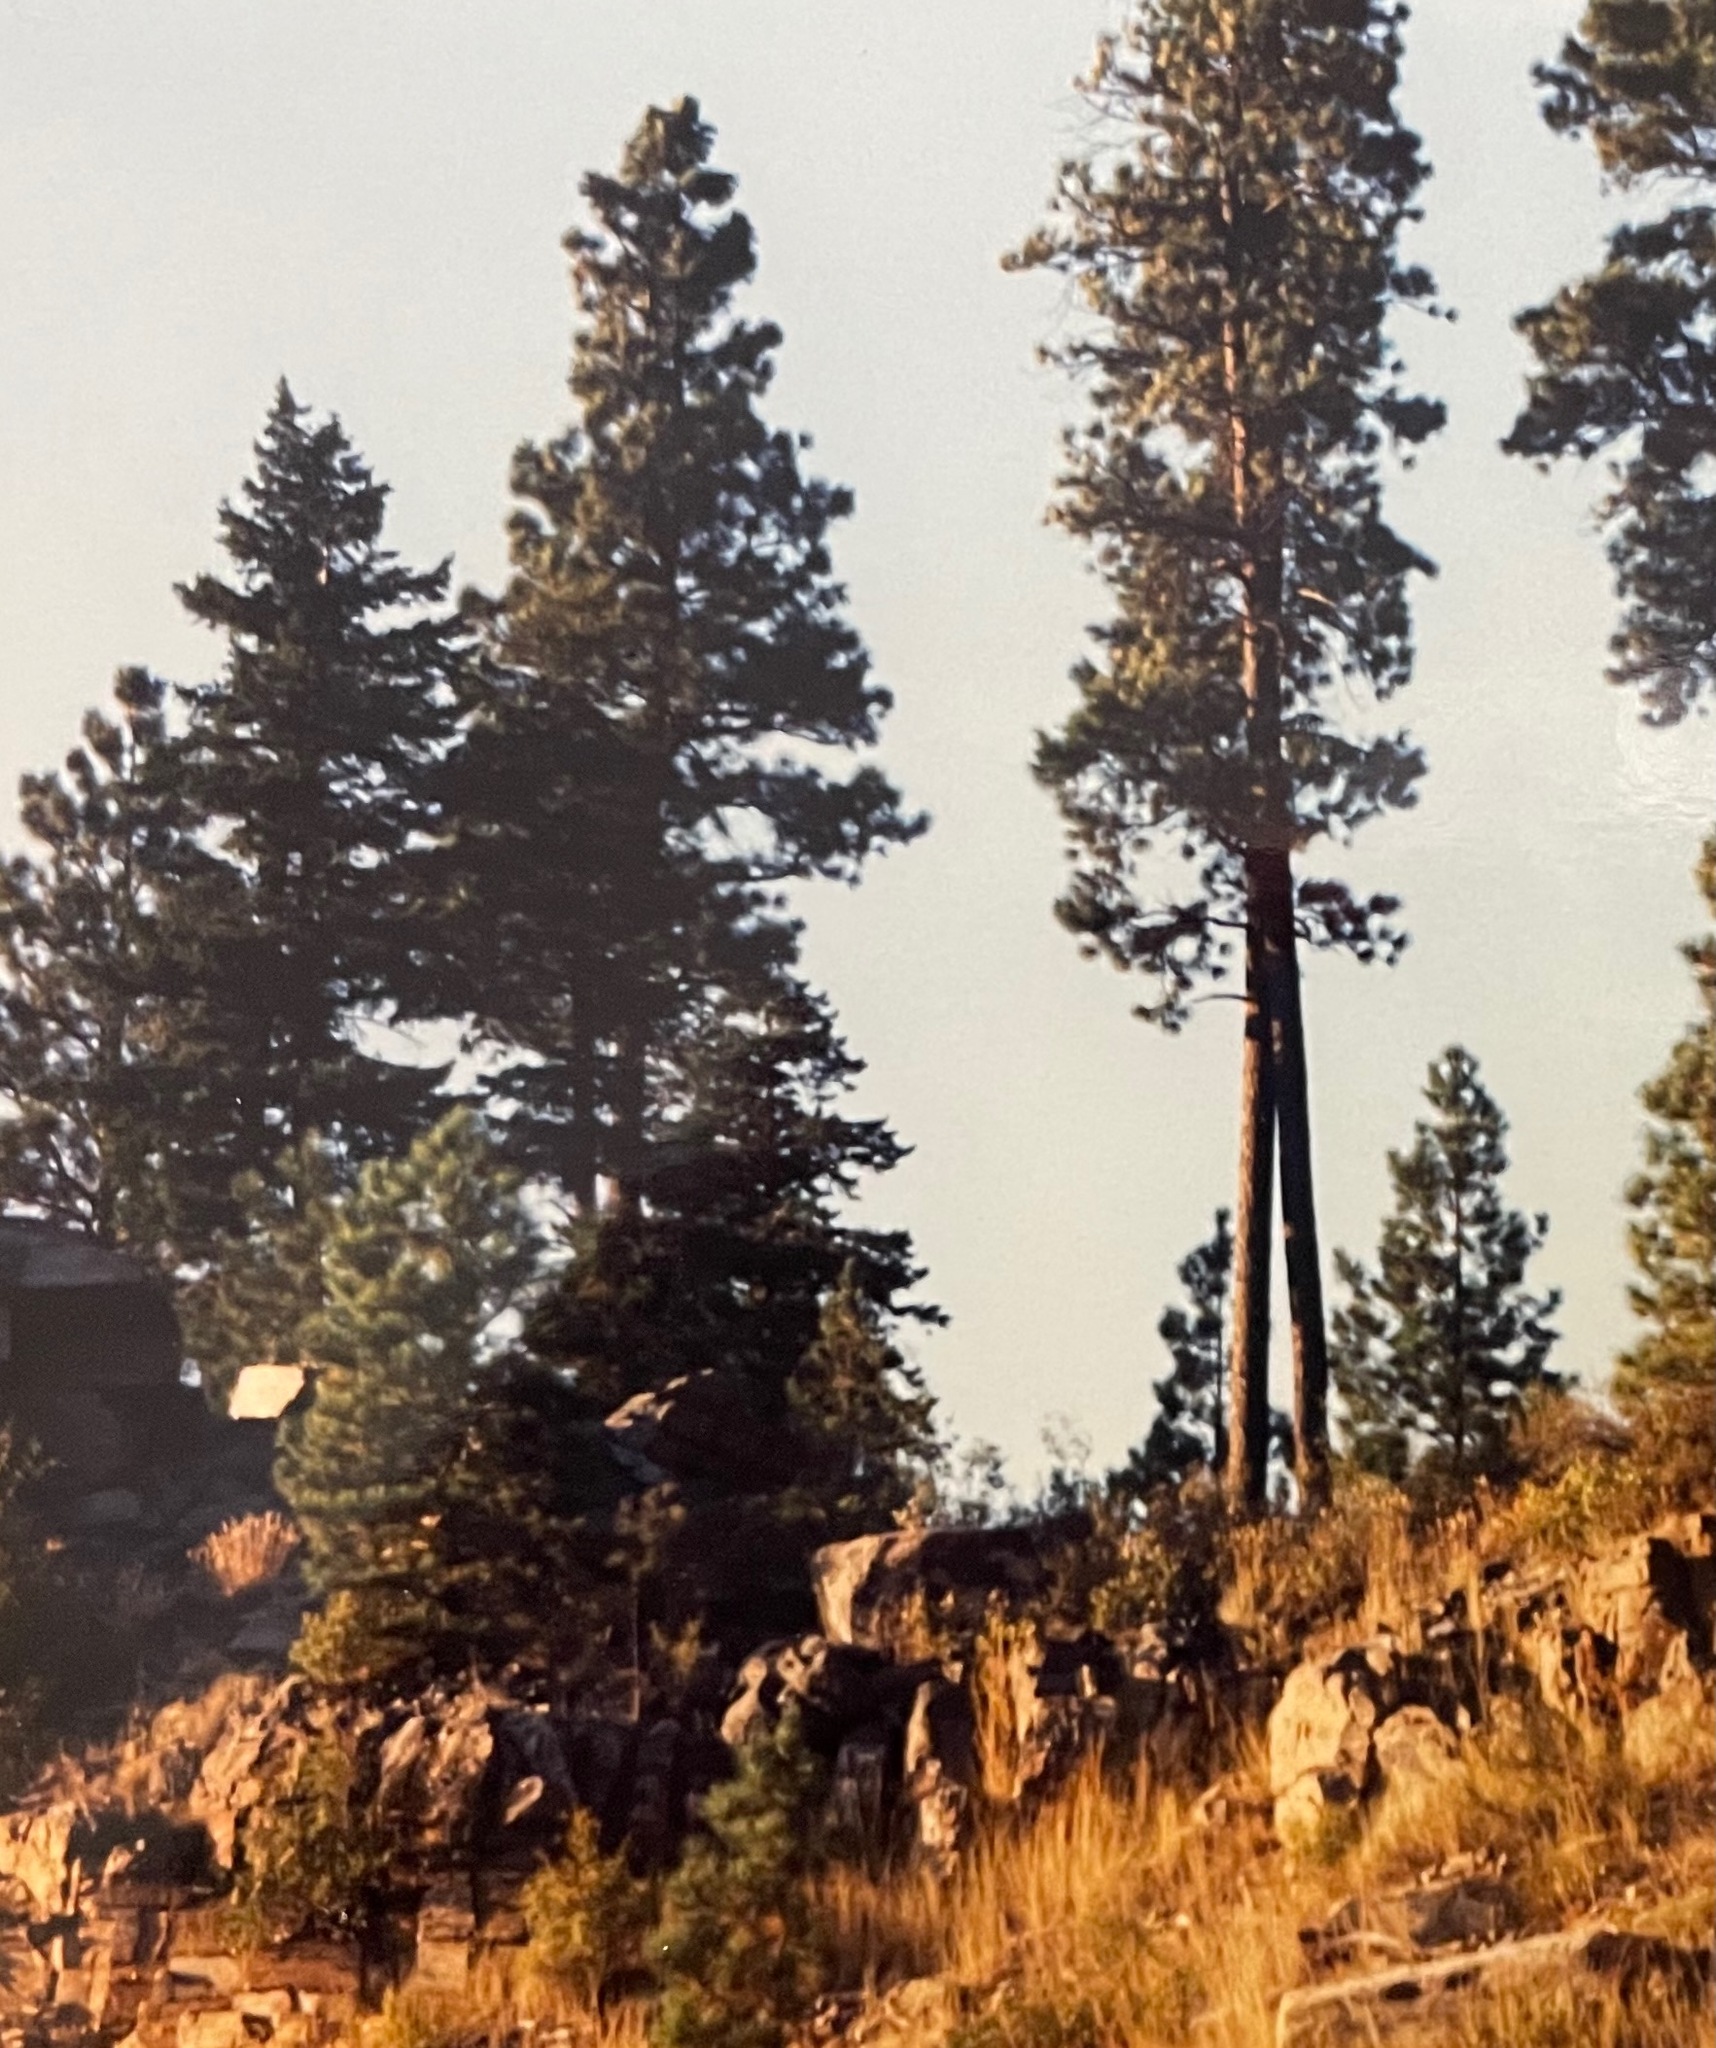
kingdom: Plantae
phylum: Tracheophyta
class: Pinopsida
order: Pinales
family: Pinaceae
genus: Pinus
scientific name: Pinus ponderosa
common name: Western yellow-pine
